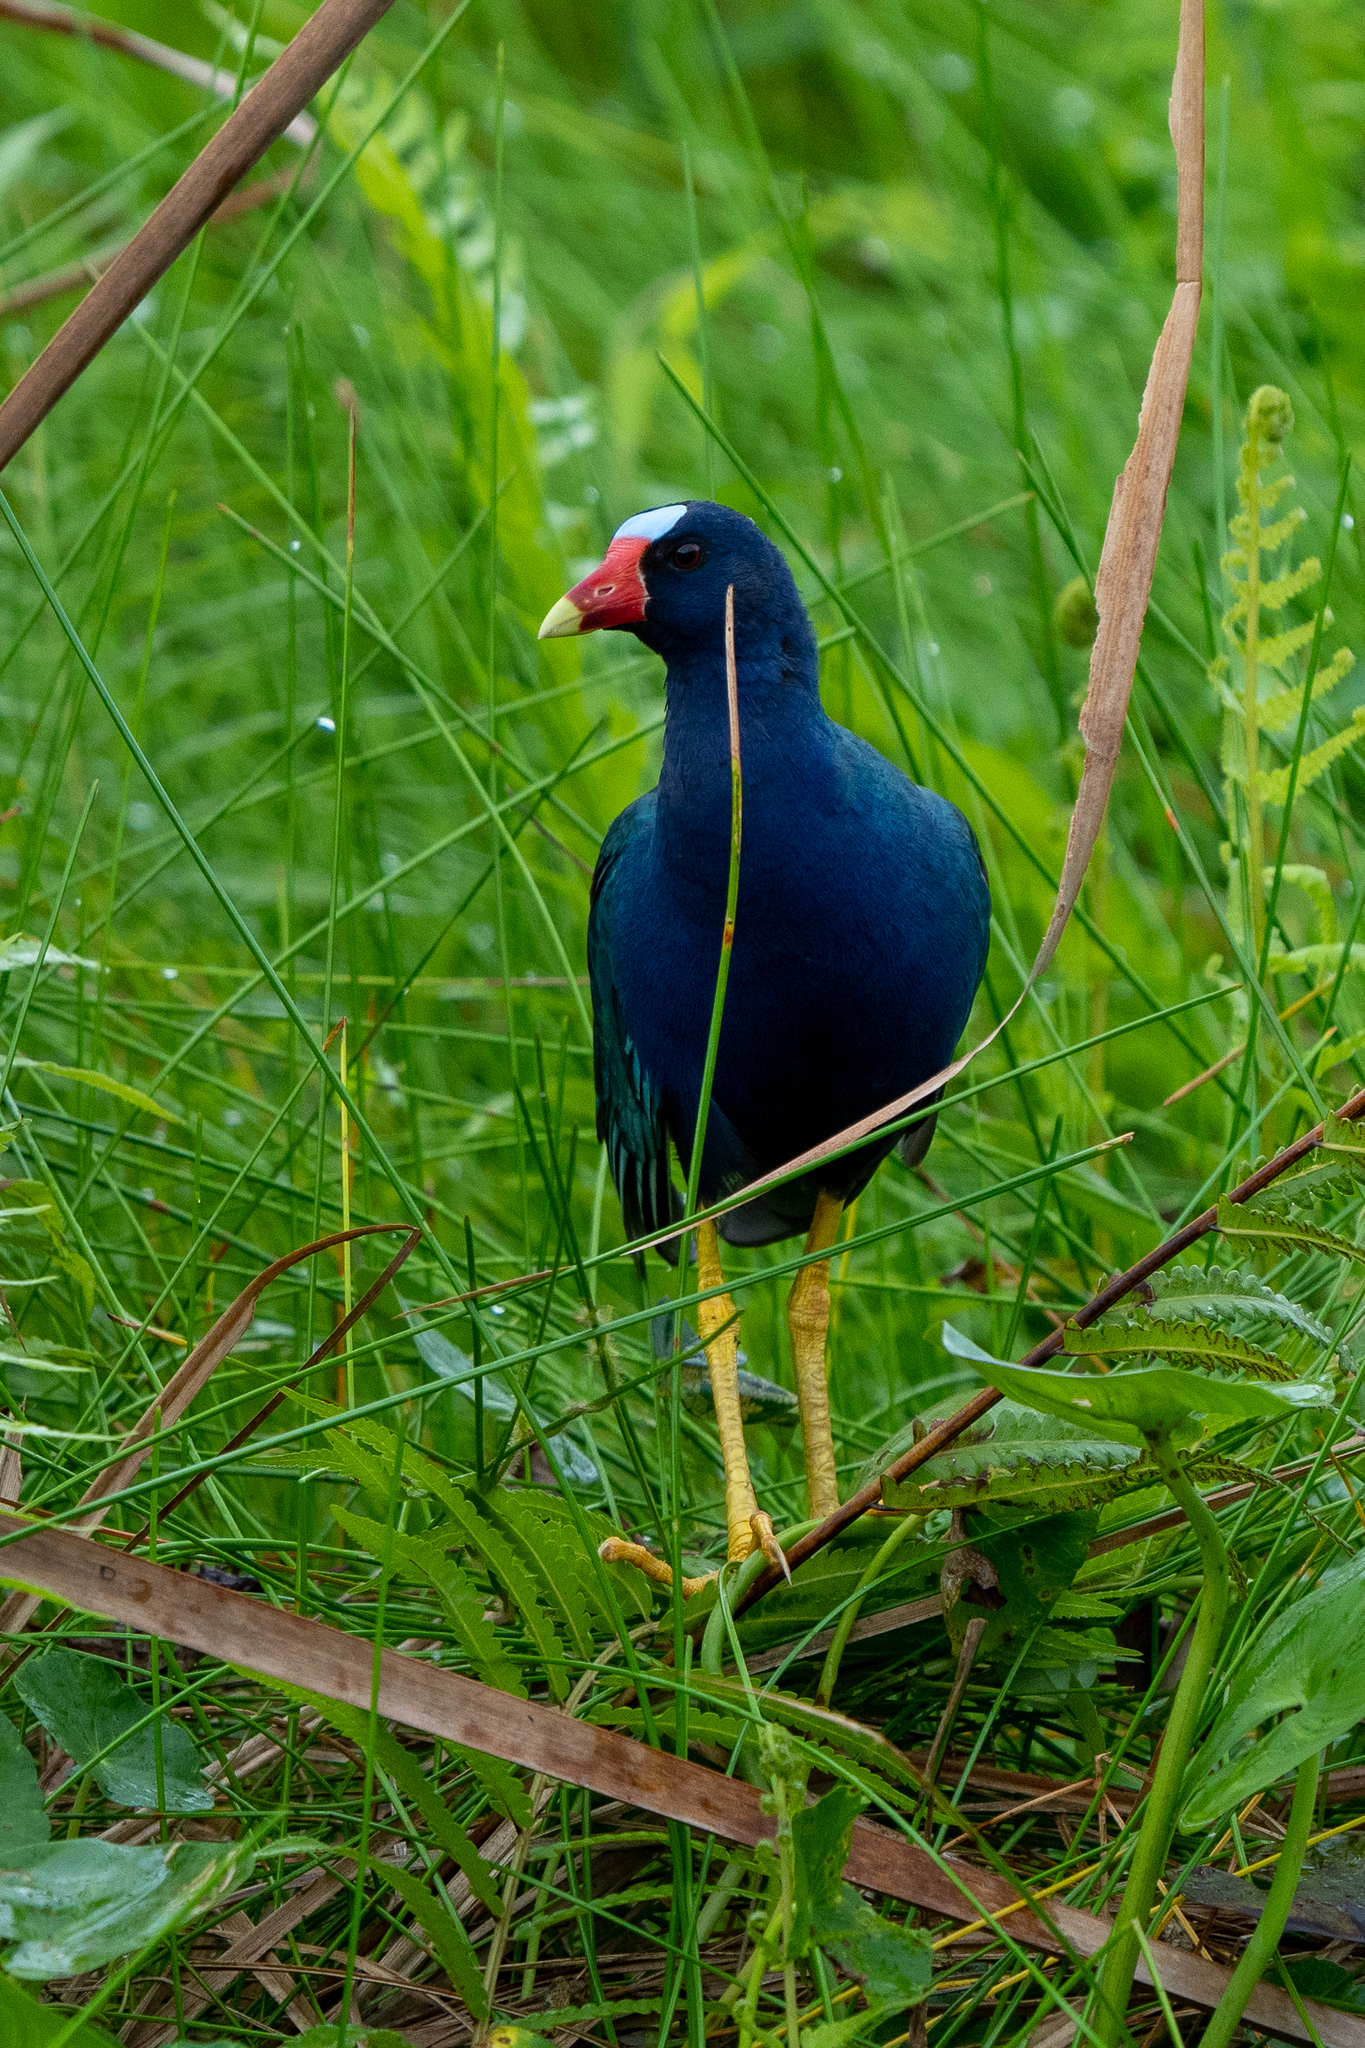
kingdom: Animalia
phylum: Chordata
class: Aves
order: Gruiformes
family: Rallidae
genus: Porphyrio
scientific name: Porphyrio martinica
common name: Purple gallinule
